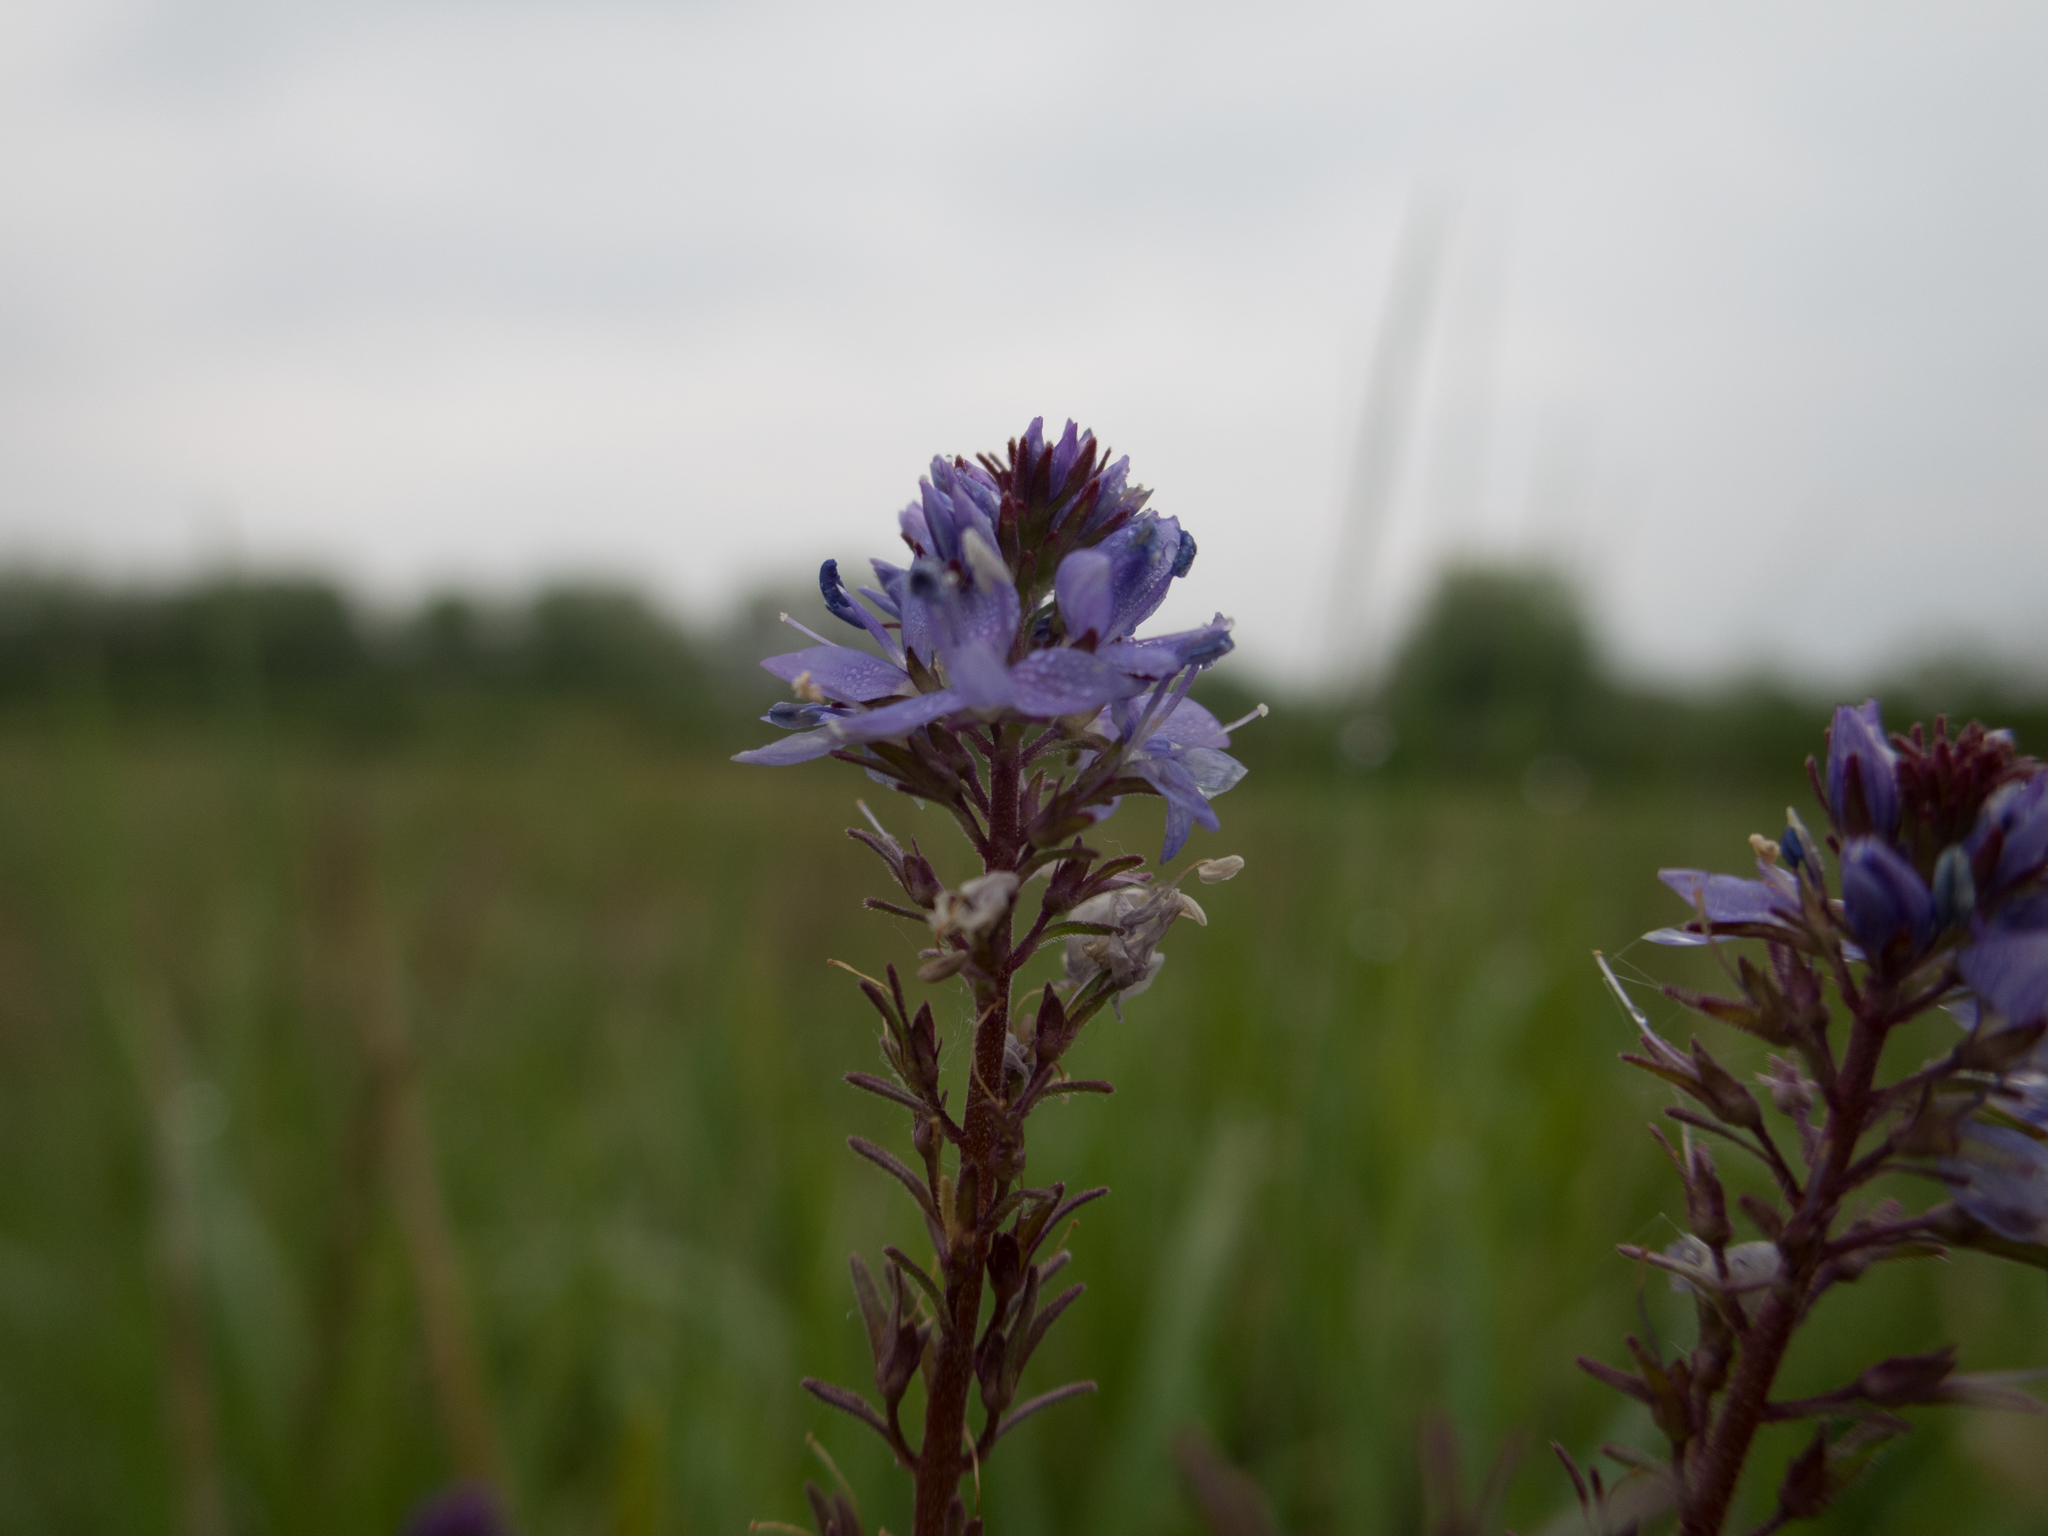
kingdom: Plantae
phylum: Tracheophyta
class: Magnoliopsida
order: Lamiales
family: Plantaginaceae
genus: Veronica
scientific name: Veronica
